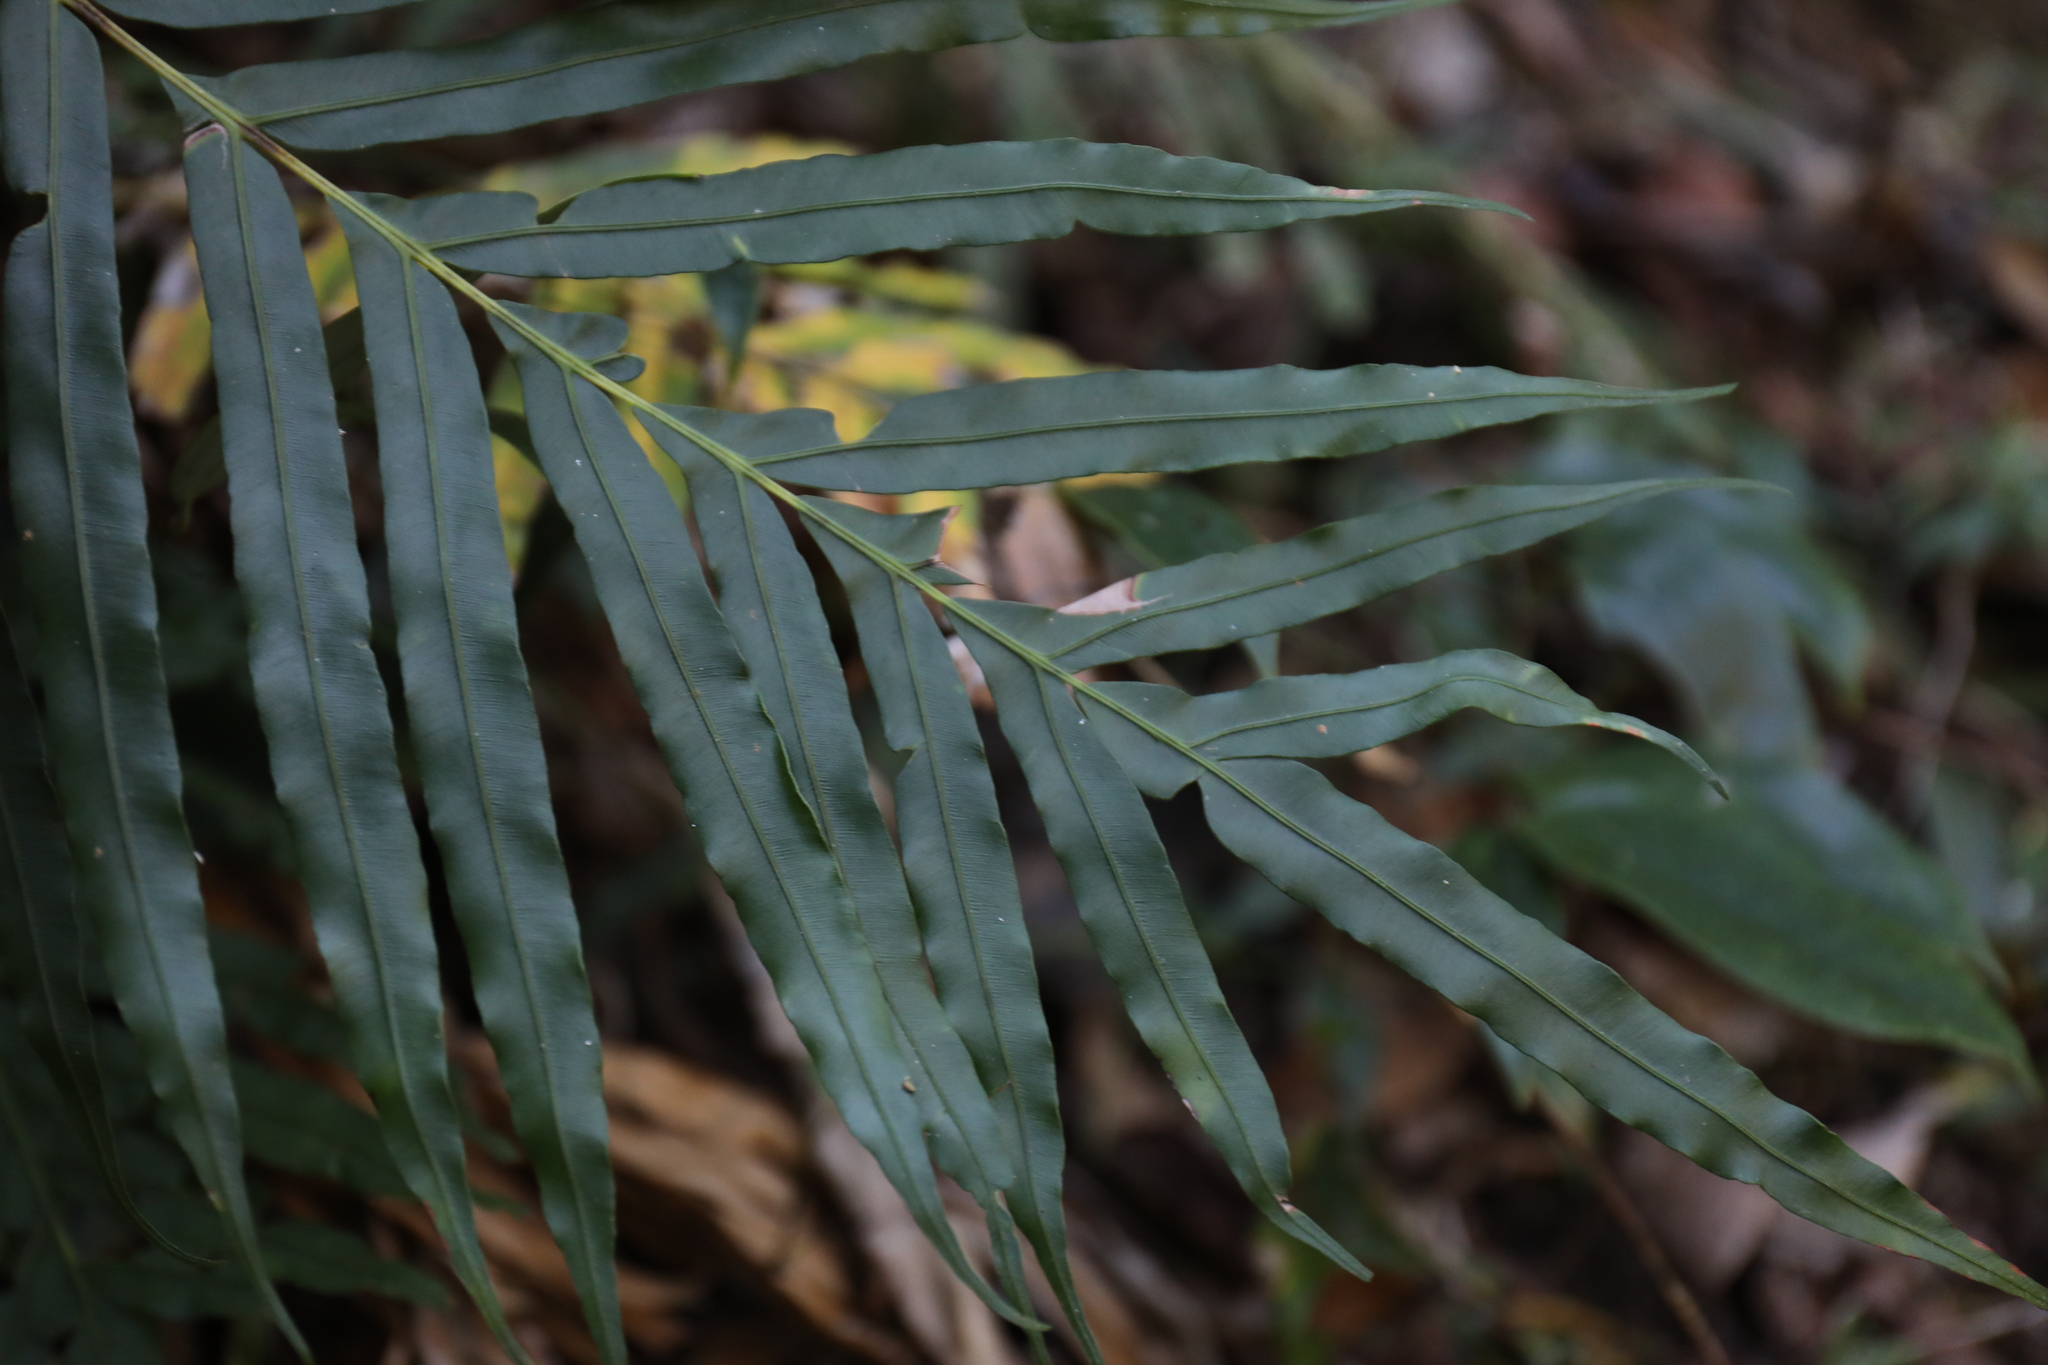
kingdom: Plantae
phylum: Tracheophyta
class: Polypodiopsida
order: Polypodiales
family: Blechnaceae
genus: Blechnopsis
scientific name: Blechnopsis orientalis
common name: Oriental blechnum
